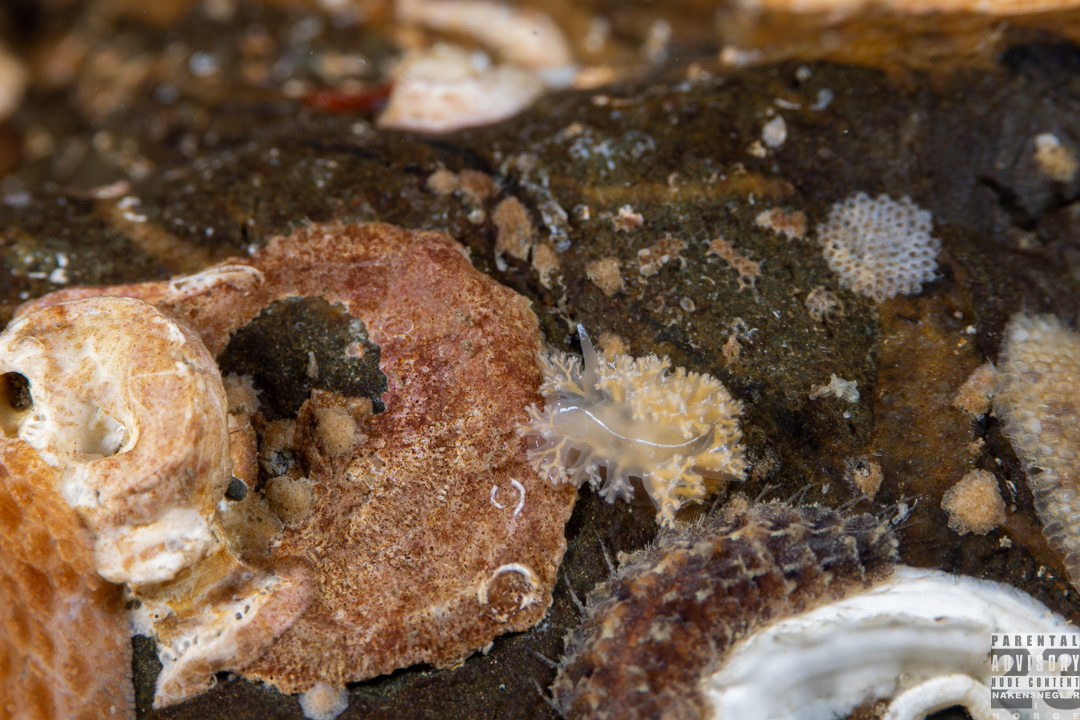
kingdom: Animalia
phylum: Mollusca
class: Gastropoda
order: Nudibranchia
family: Heroidae
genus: Hero
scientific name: Hero formosa
